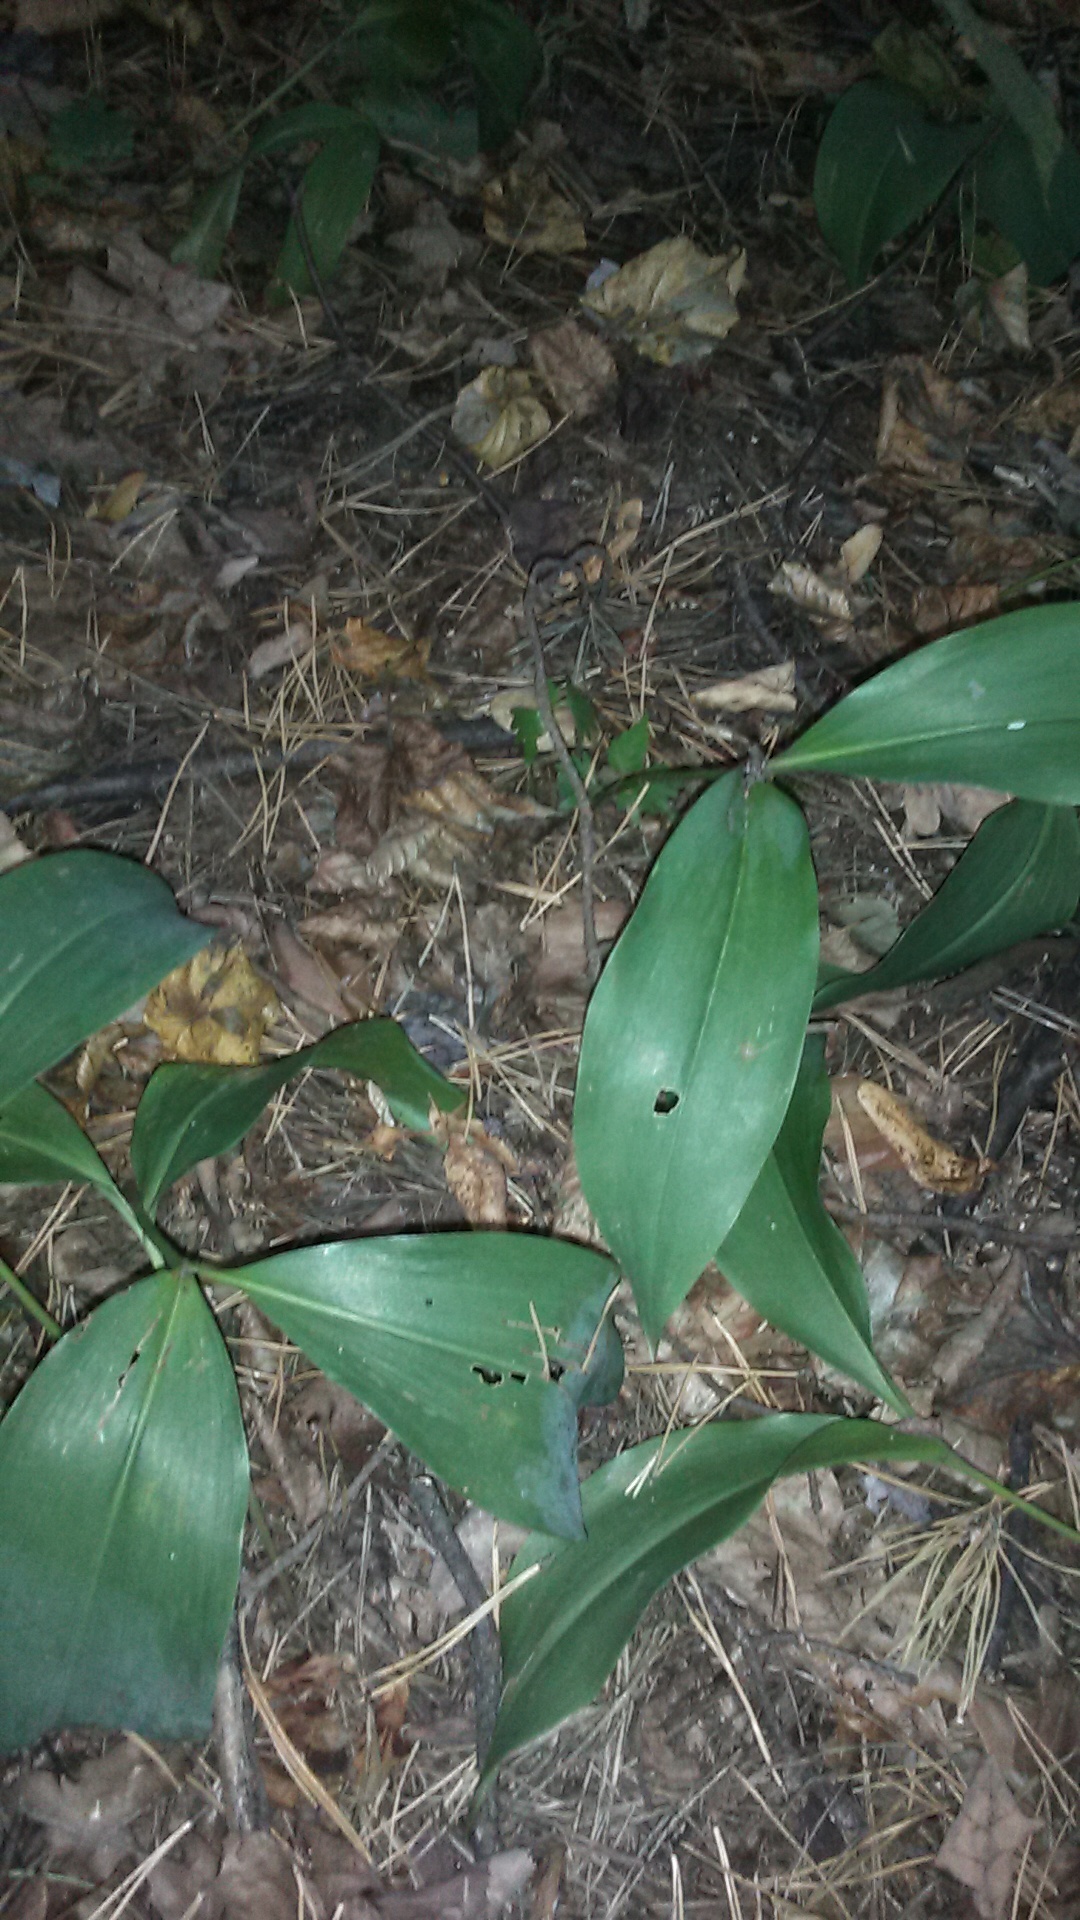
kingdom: Plantae
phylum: Tracheophyta
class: Liliopsida
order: Asparagales
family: Asparagaceae
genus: Convallaria
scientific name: Convallaria majalis
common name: Lily-of-the-valley
